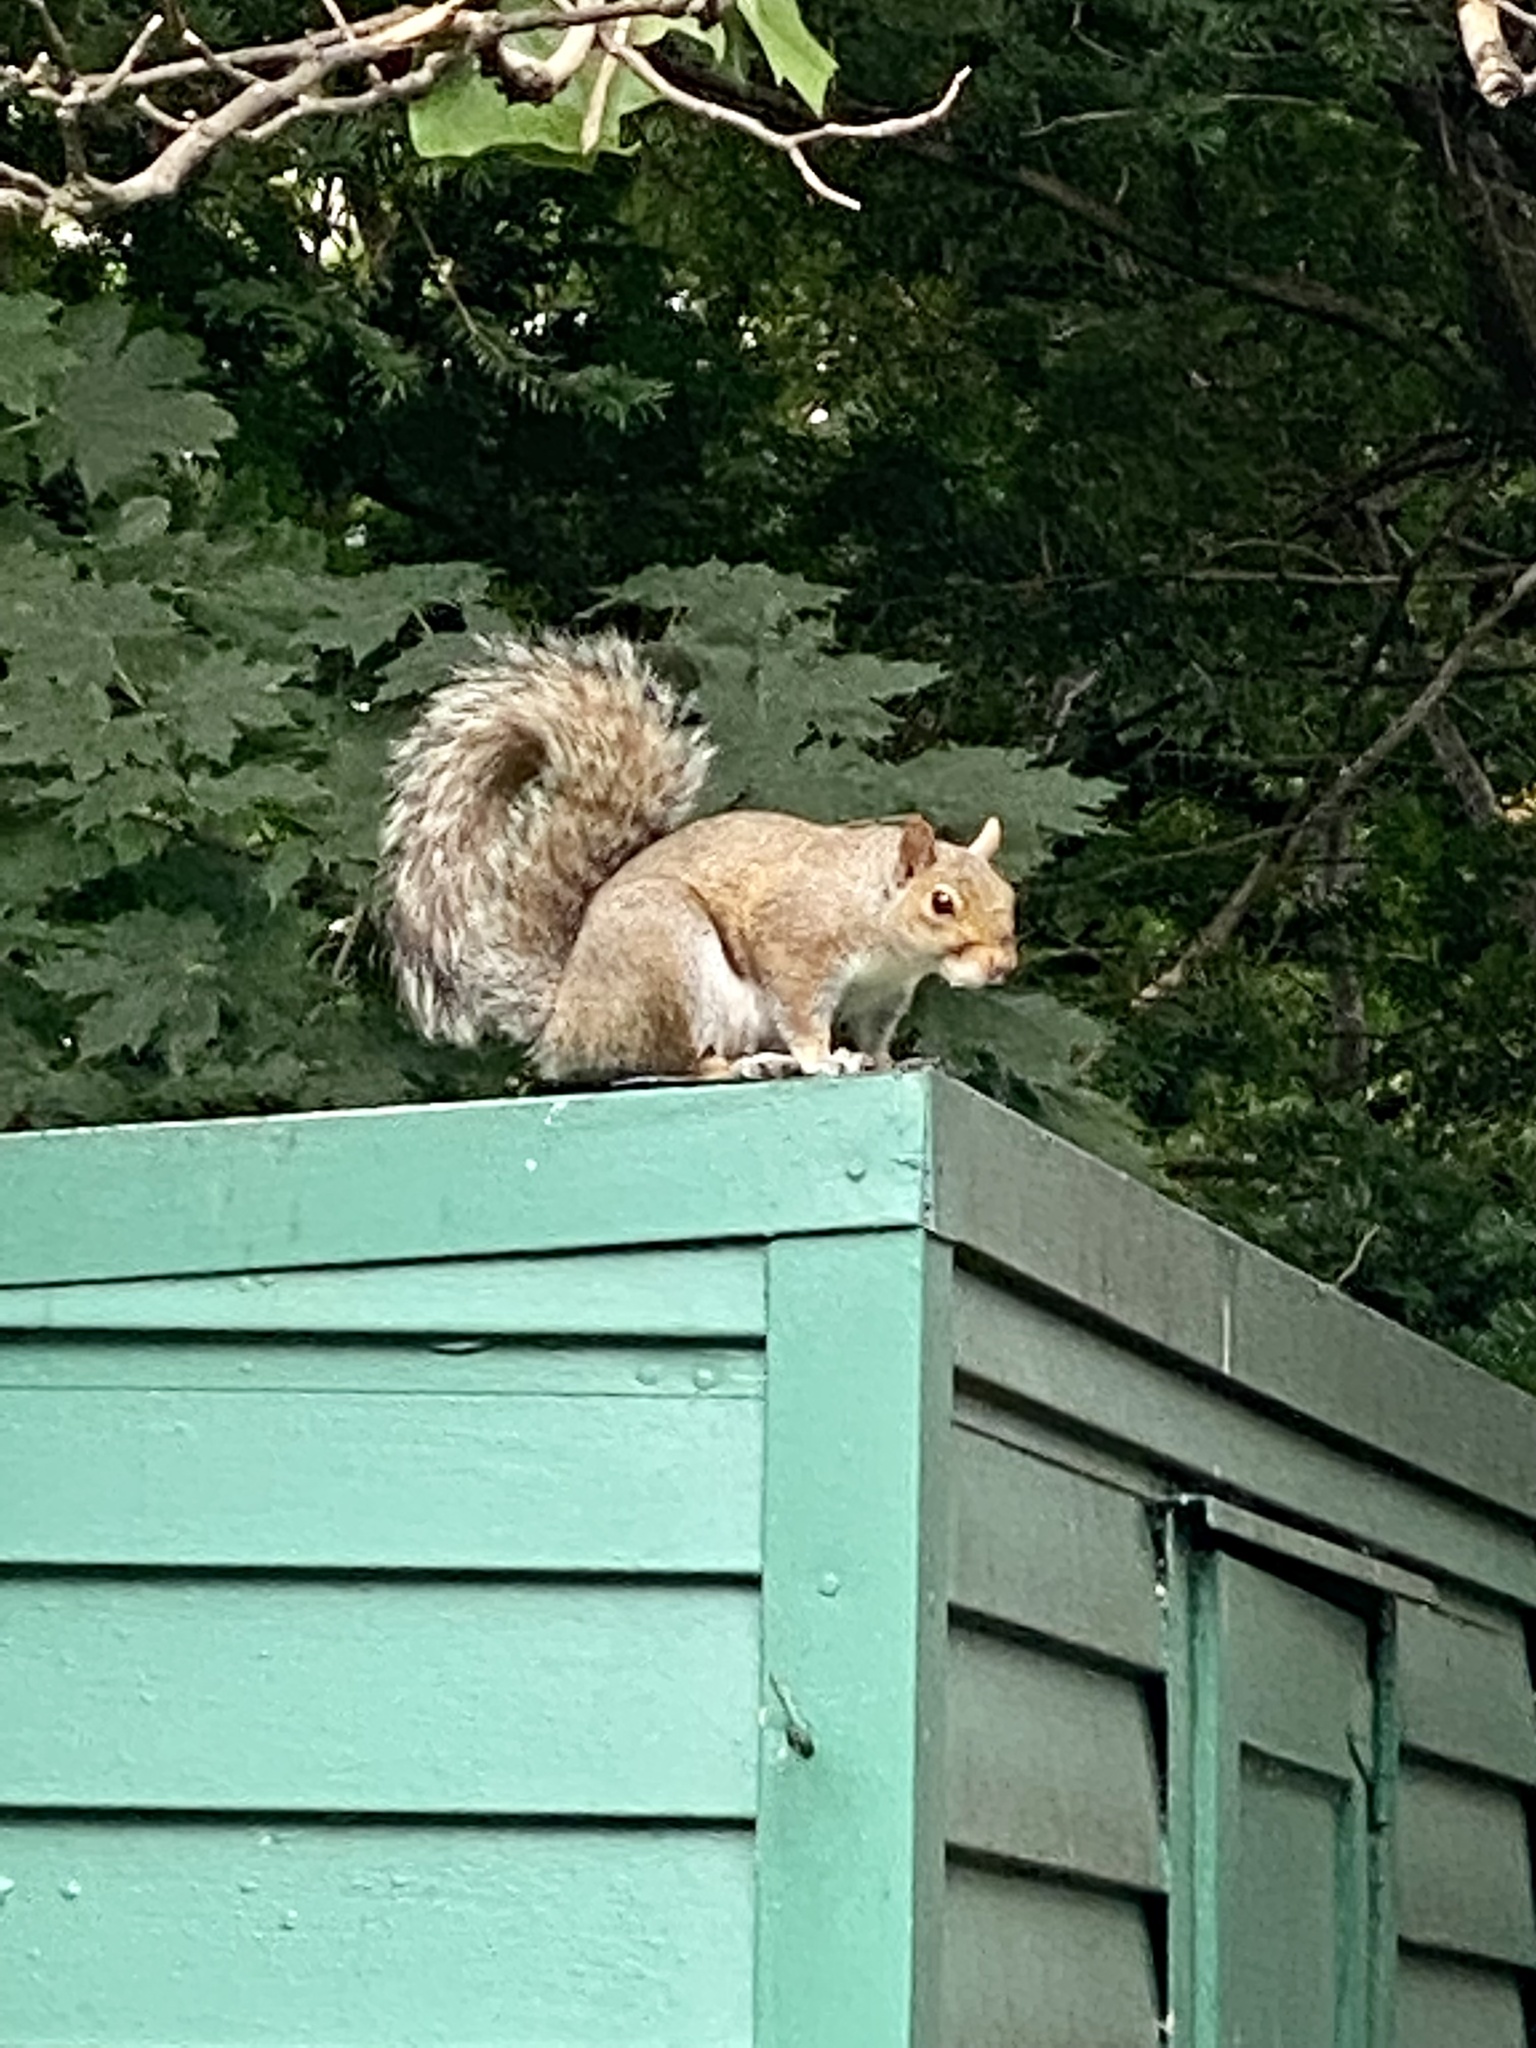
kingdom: Animalia
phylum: Chordata
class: Mammalia
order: Rodentia
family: Sciuridae
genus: Sciurus
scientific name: Sciurus carolinensis
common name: Eastern gray squirrel
